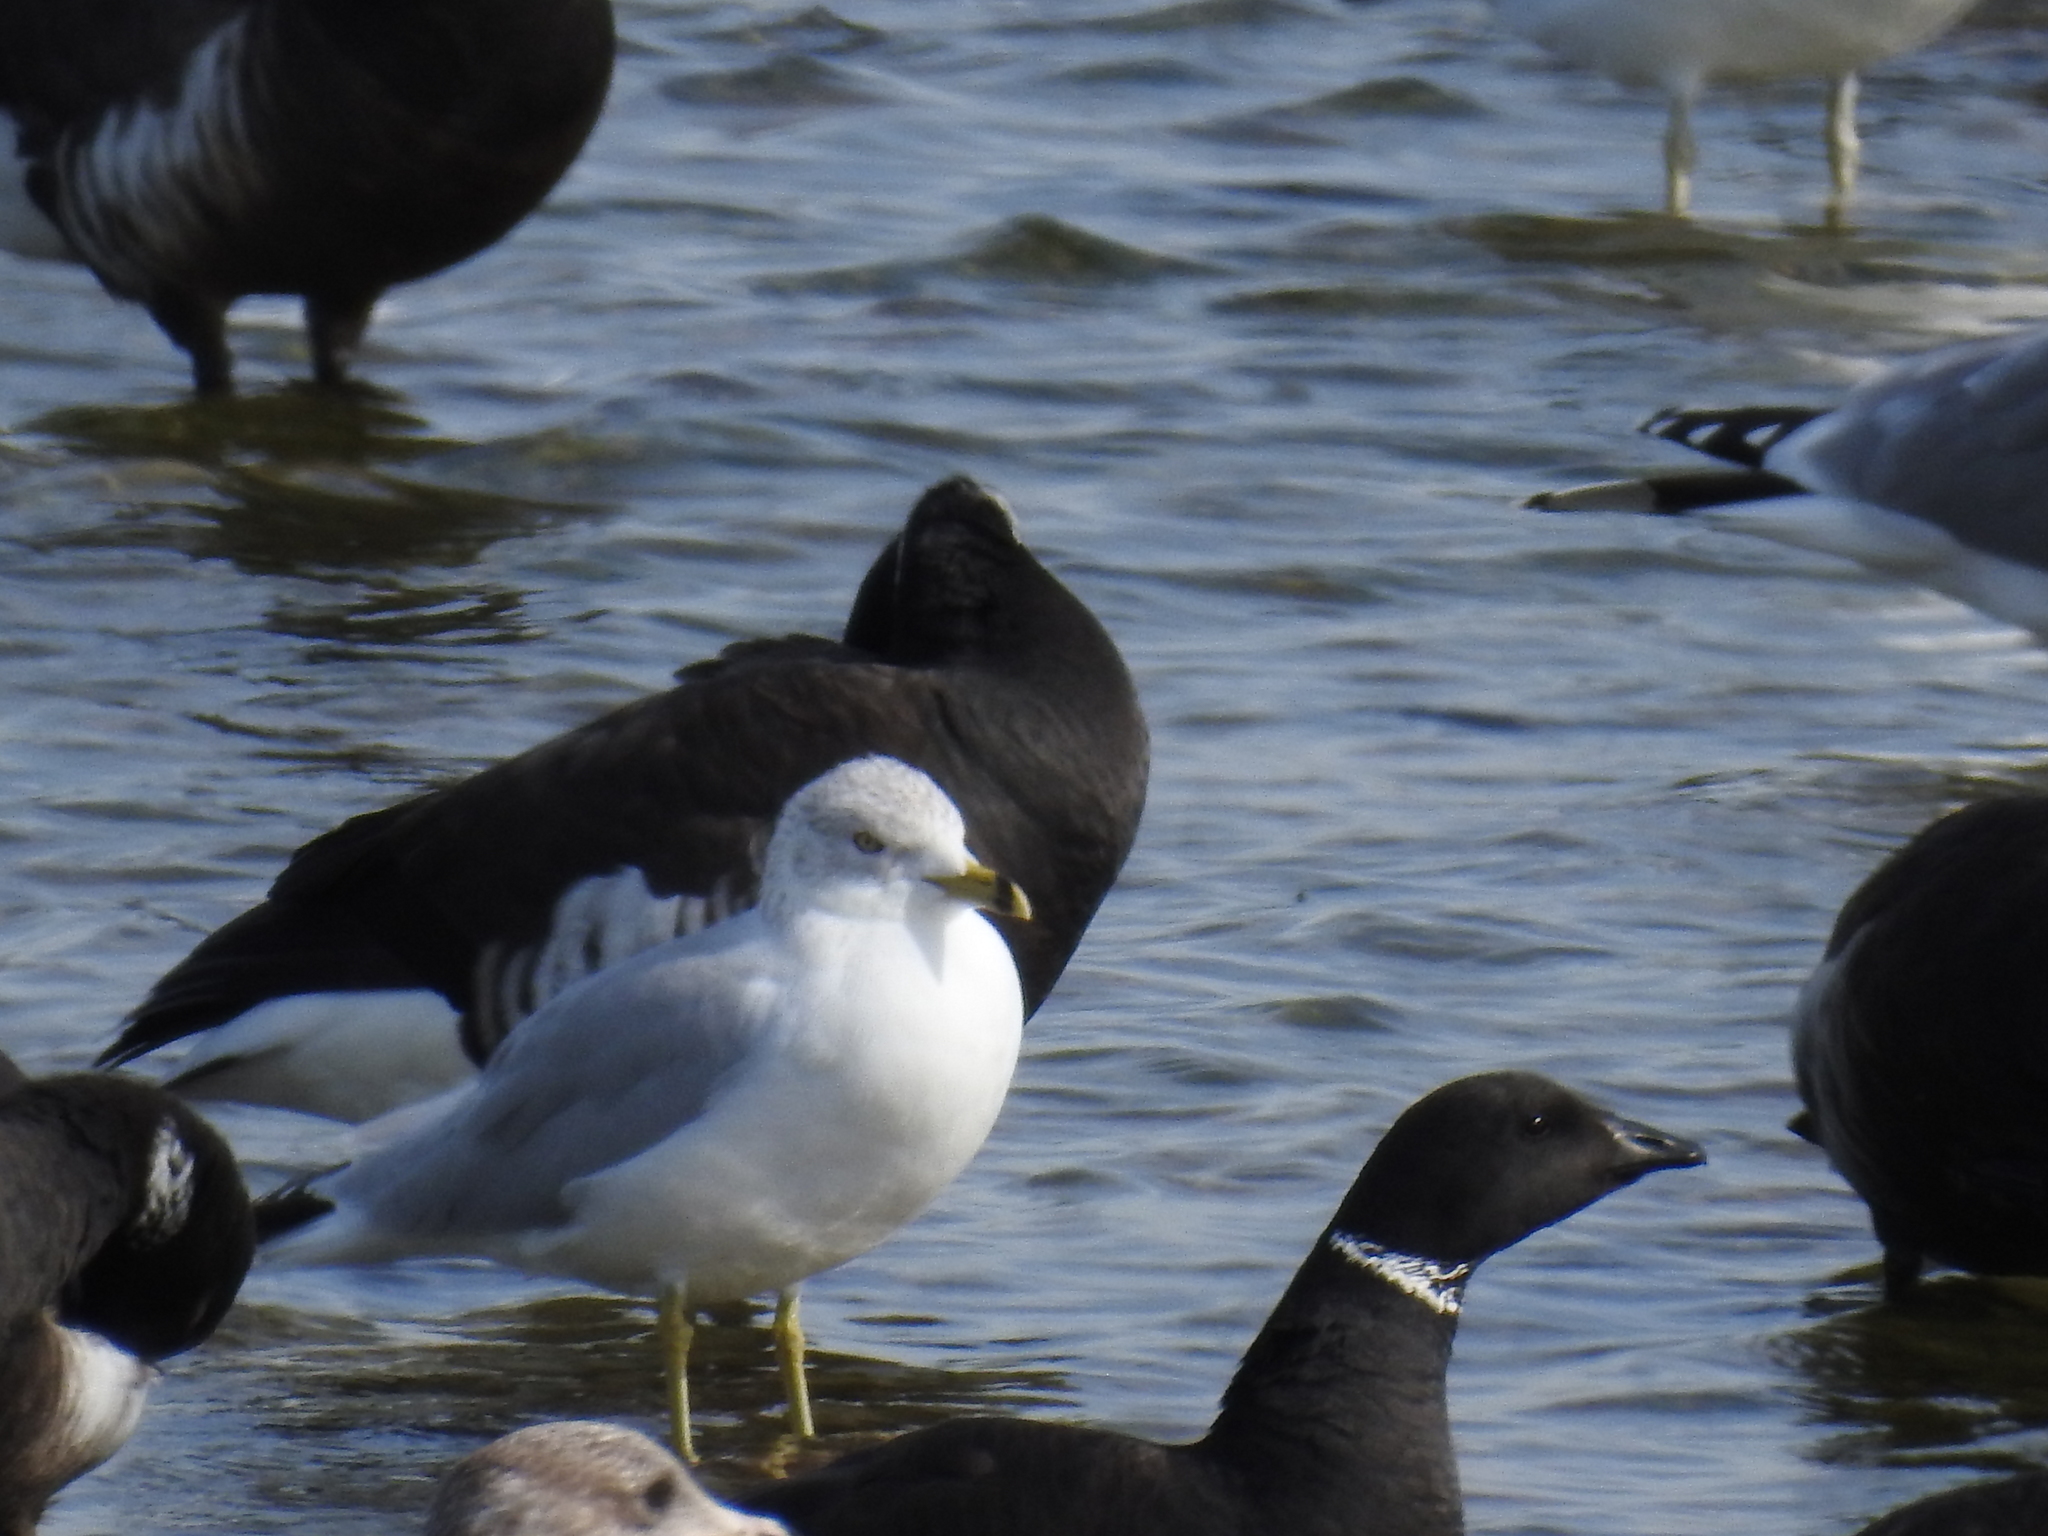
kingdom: Animalia
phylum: Chordata
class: Aves
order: Anseriformes
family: Anatidae
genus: Branta
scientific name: Branta bernicla
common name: Brant goose
